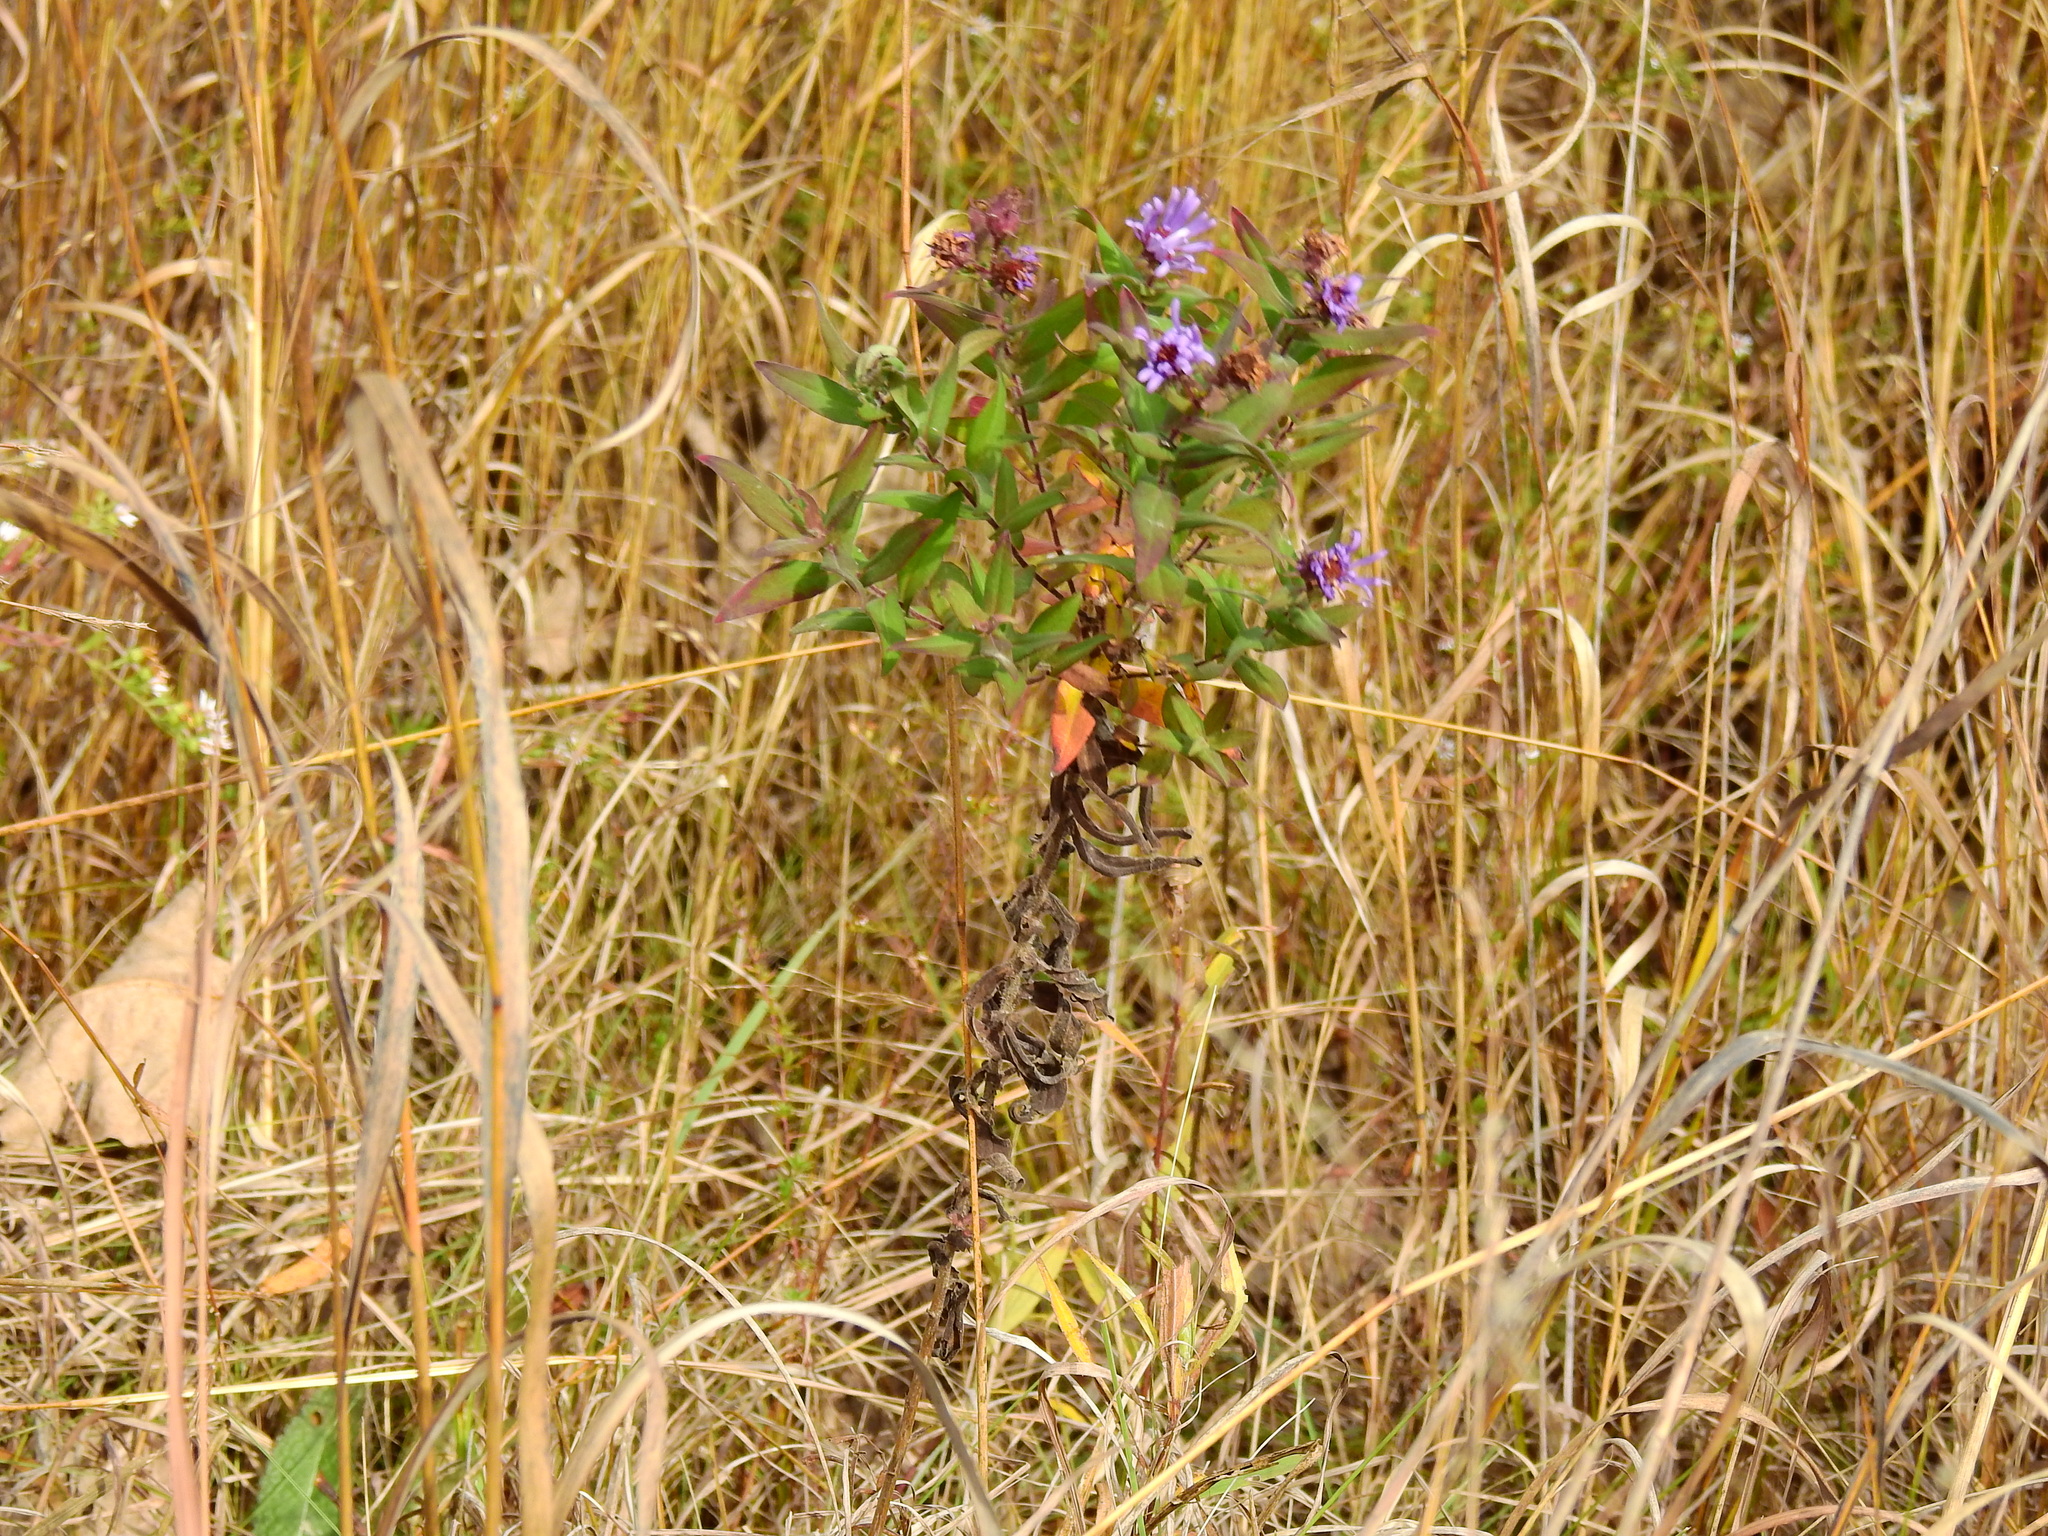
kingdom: Plantae
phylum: Tracheophyta
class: Magnoliopsida
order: Asterales
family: Asteraceae
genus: Symphyotrichum
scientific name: Symphyotrichum novae-angliae
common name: Michaelmas daisy
